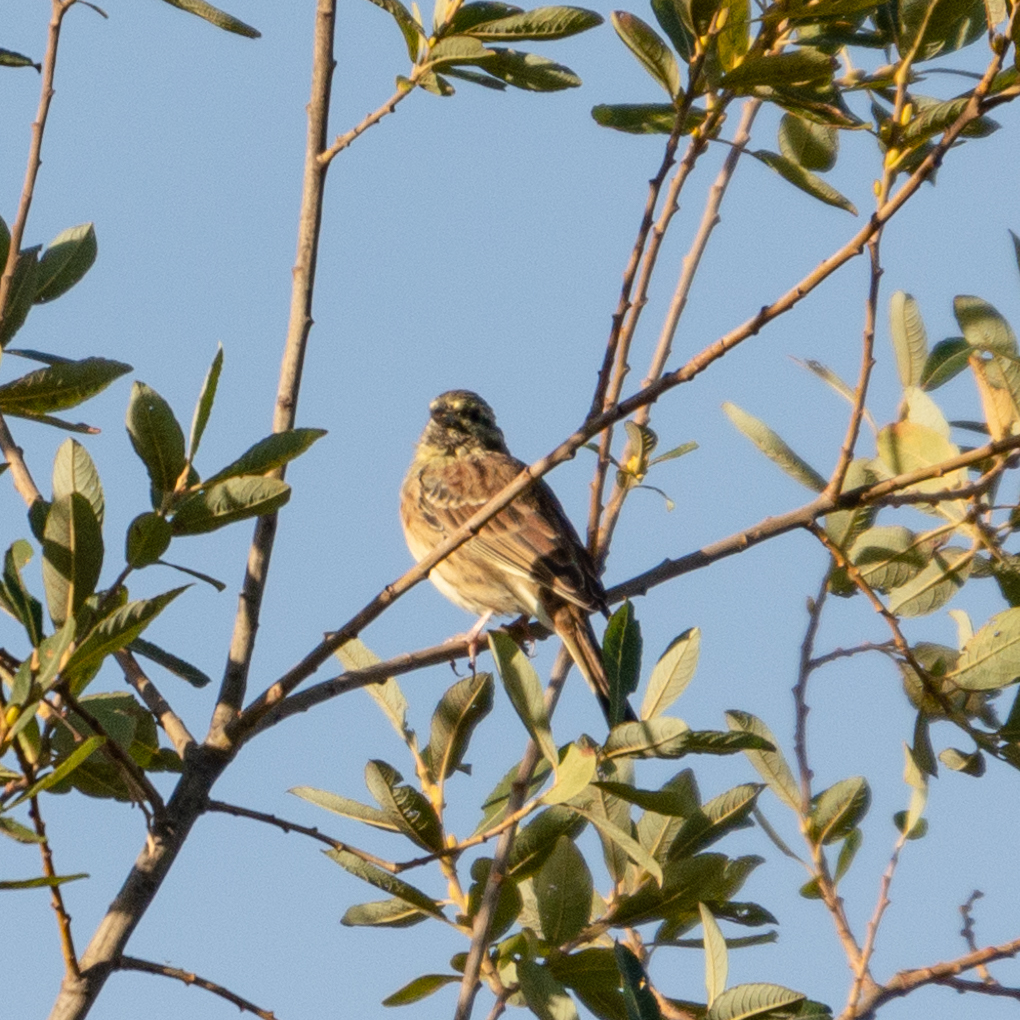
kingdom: Animalia
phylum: Chordata
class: Aves
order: Passeriformes
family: Emberizidae
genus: Emberiza
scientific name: Emberiza cirlus
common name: Cirl bunting
